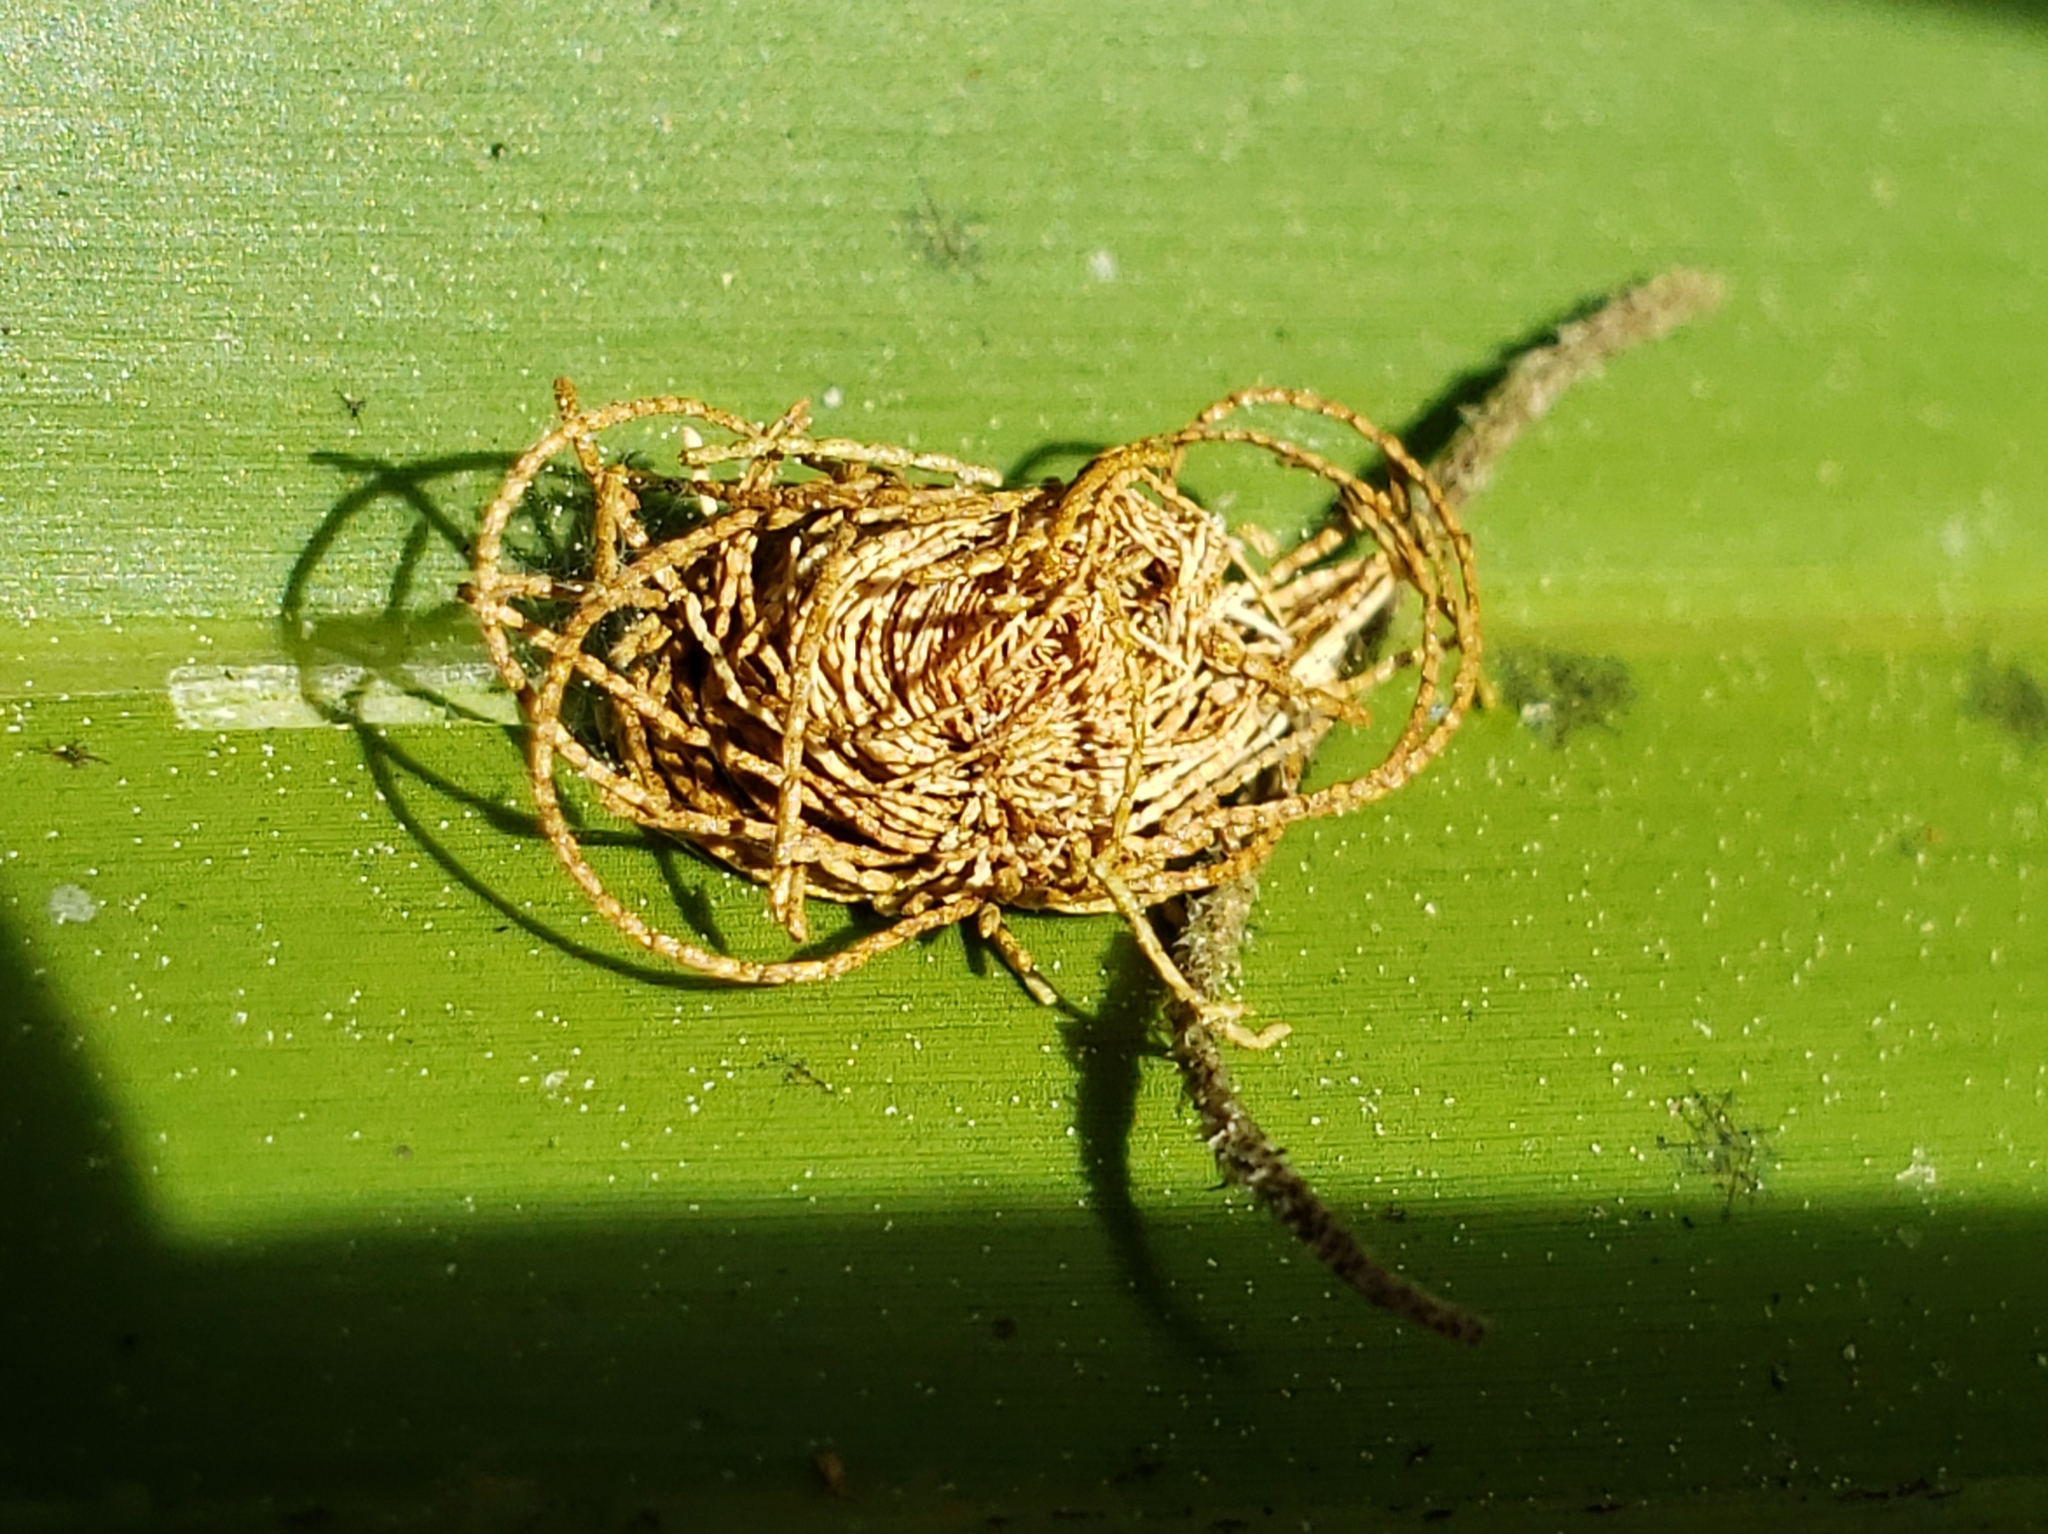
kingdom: Animalia
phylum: Arthropoda
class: Insecta
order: Coleoptera
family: Chrysomelidae
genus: Hemisphaerota
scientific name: Hemisphaerota cyanea
